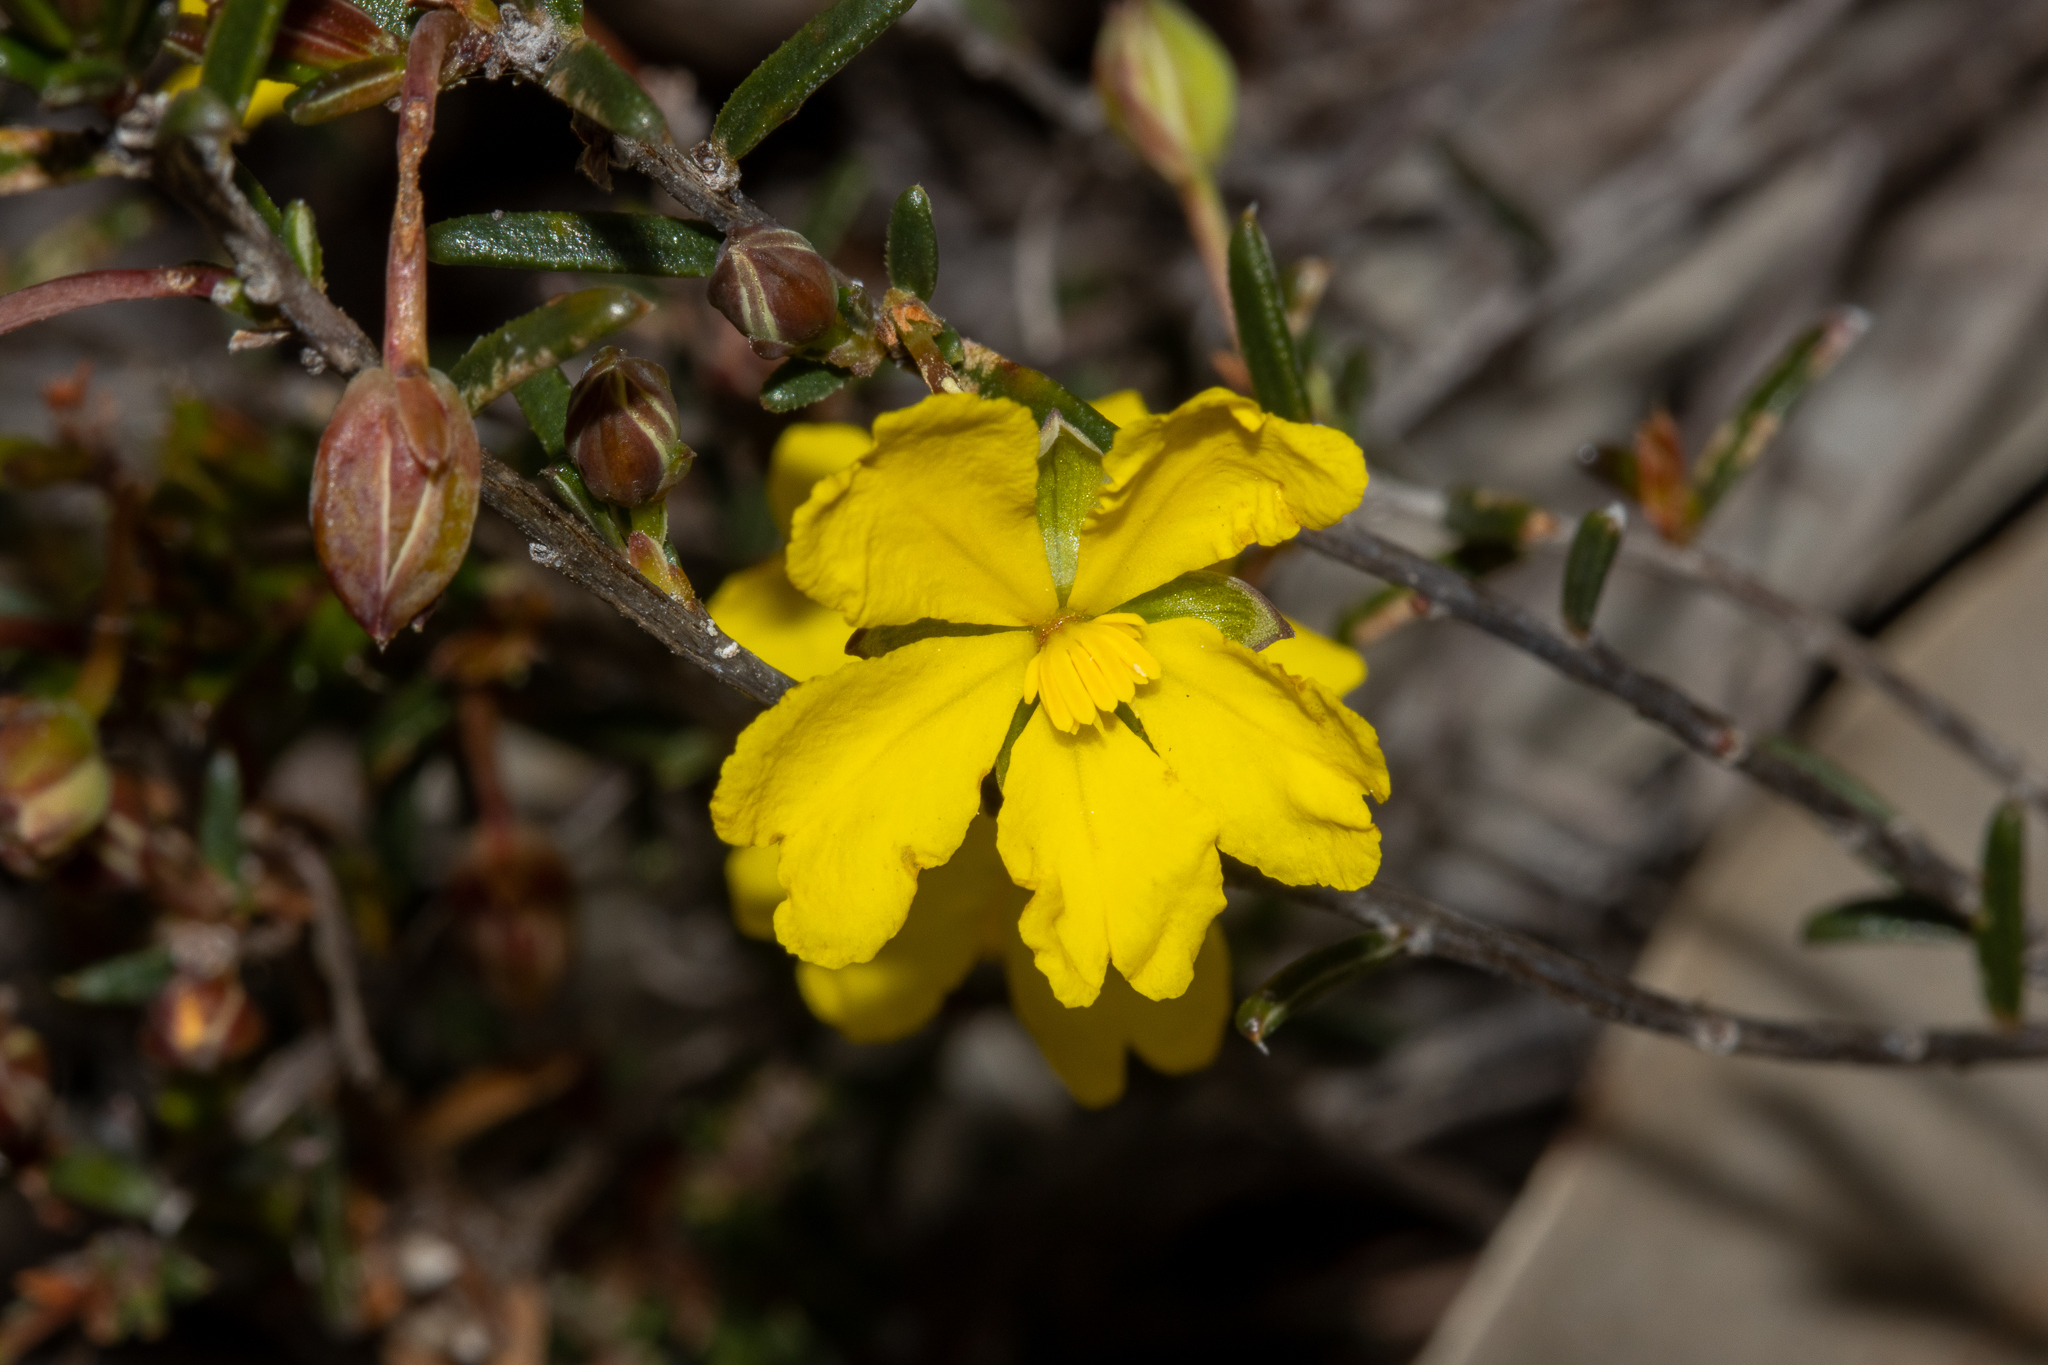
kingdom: Plantae
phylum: Tracheophyta
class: Magnoliopsida
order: Dilleniales
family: Dilleniaceae
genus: Hibbertia
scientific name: Hibbertia lineata
